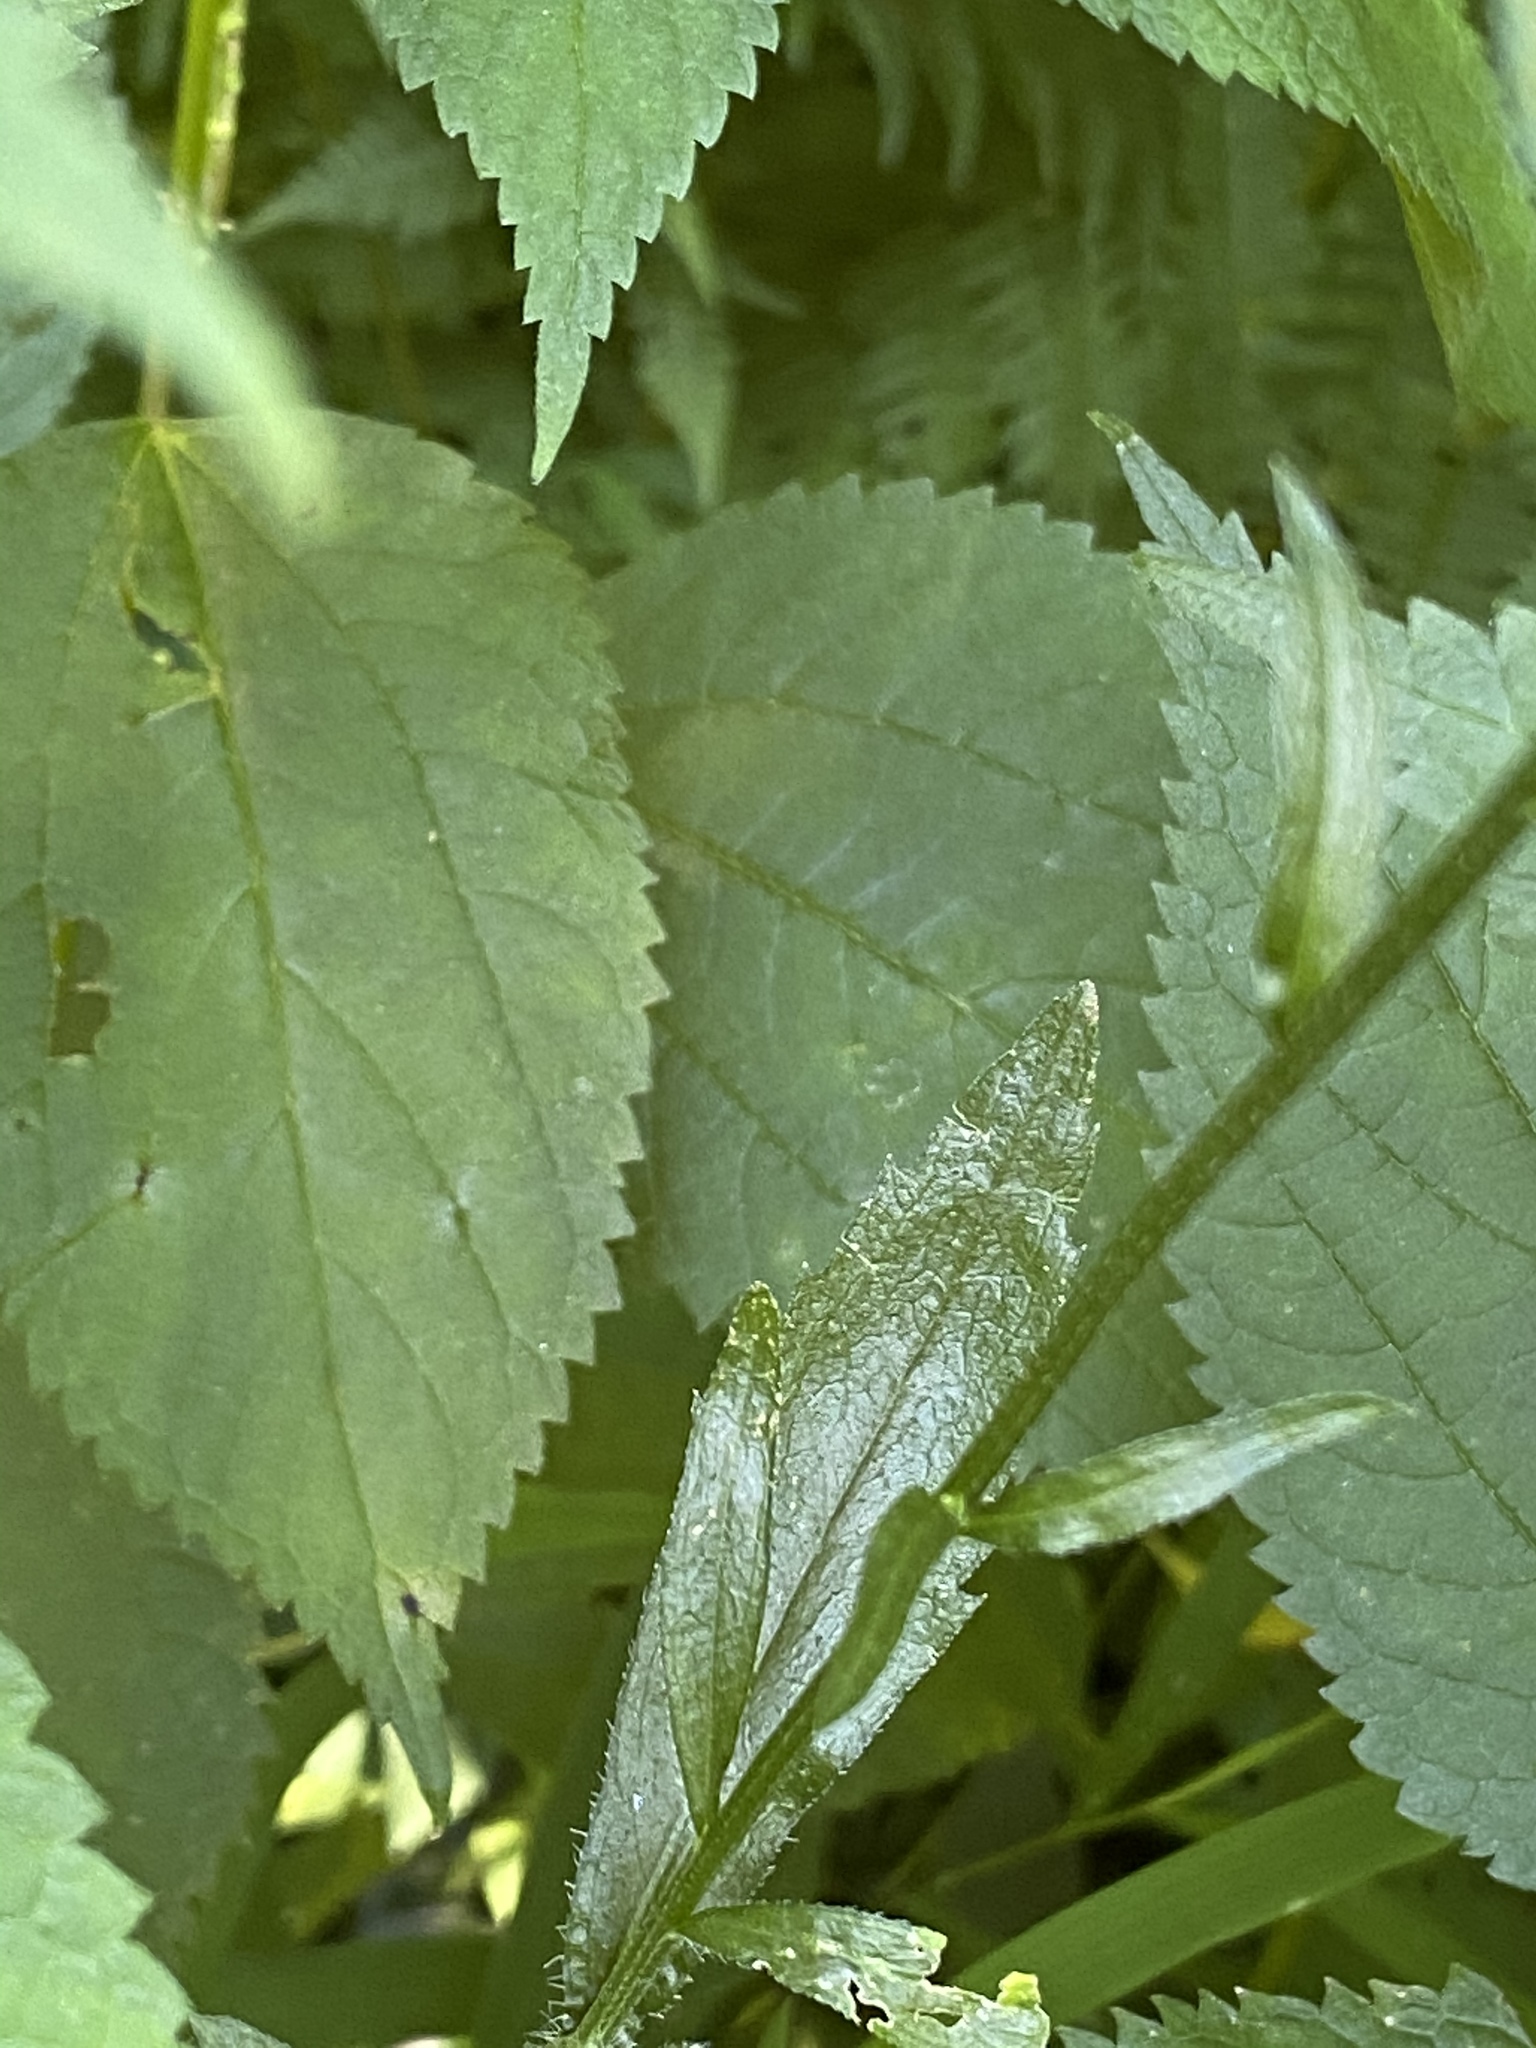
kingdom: Plantae
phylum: Tracheophyta
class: Magnoliopsida
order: Asterales
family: Asteraceae
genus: Erigeron
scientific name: Erigeron annuus
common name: Tall fleabane
